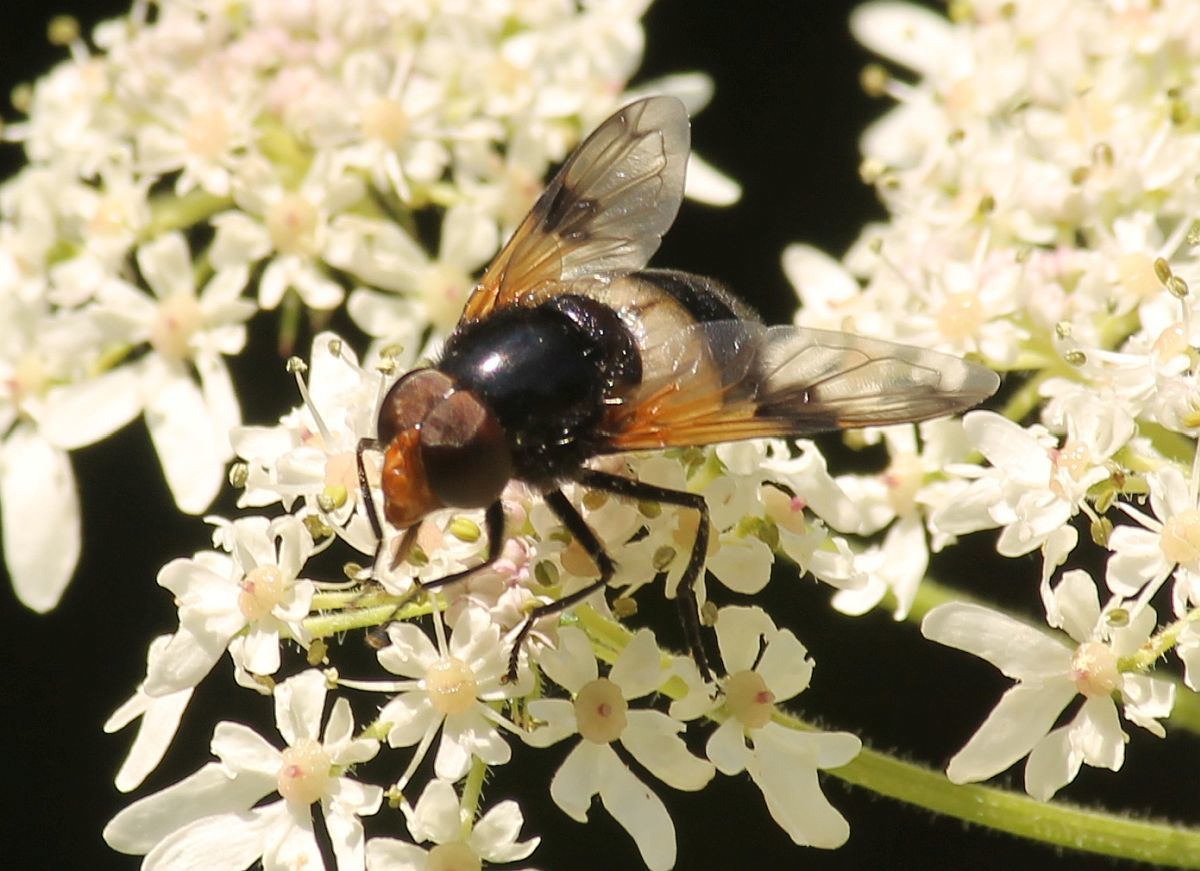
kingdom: Animalia
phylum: Arthropoda
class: Insecta
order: Diptera
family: Syrphidae
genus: Volucella
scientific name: Volucella pellucens
